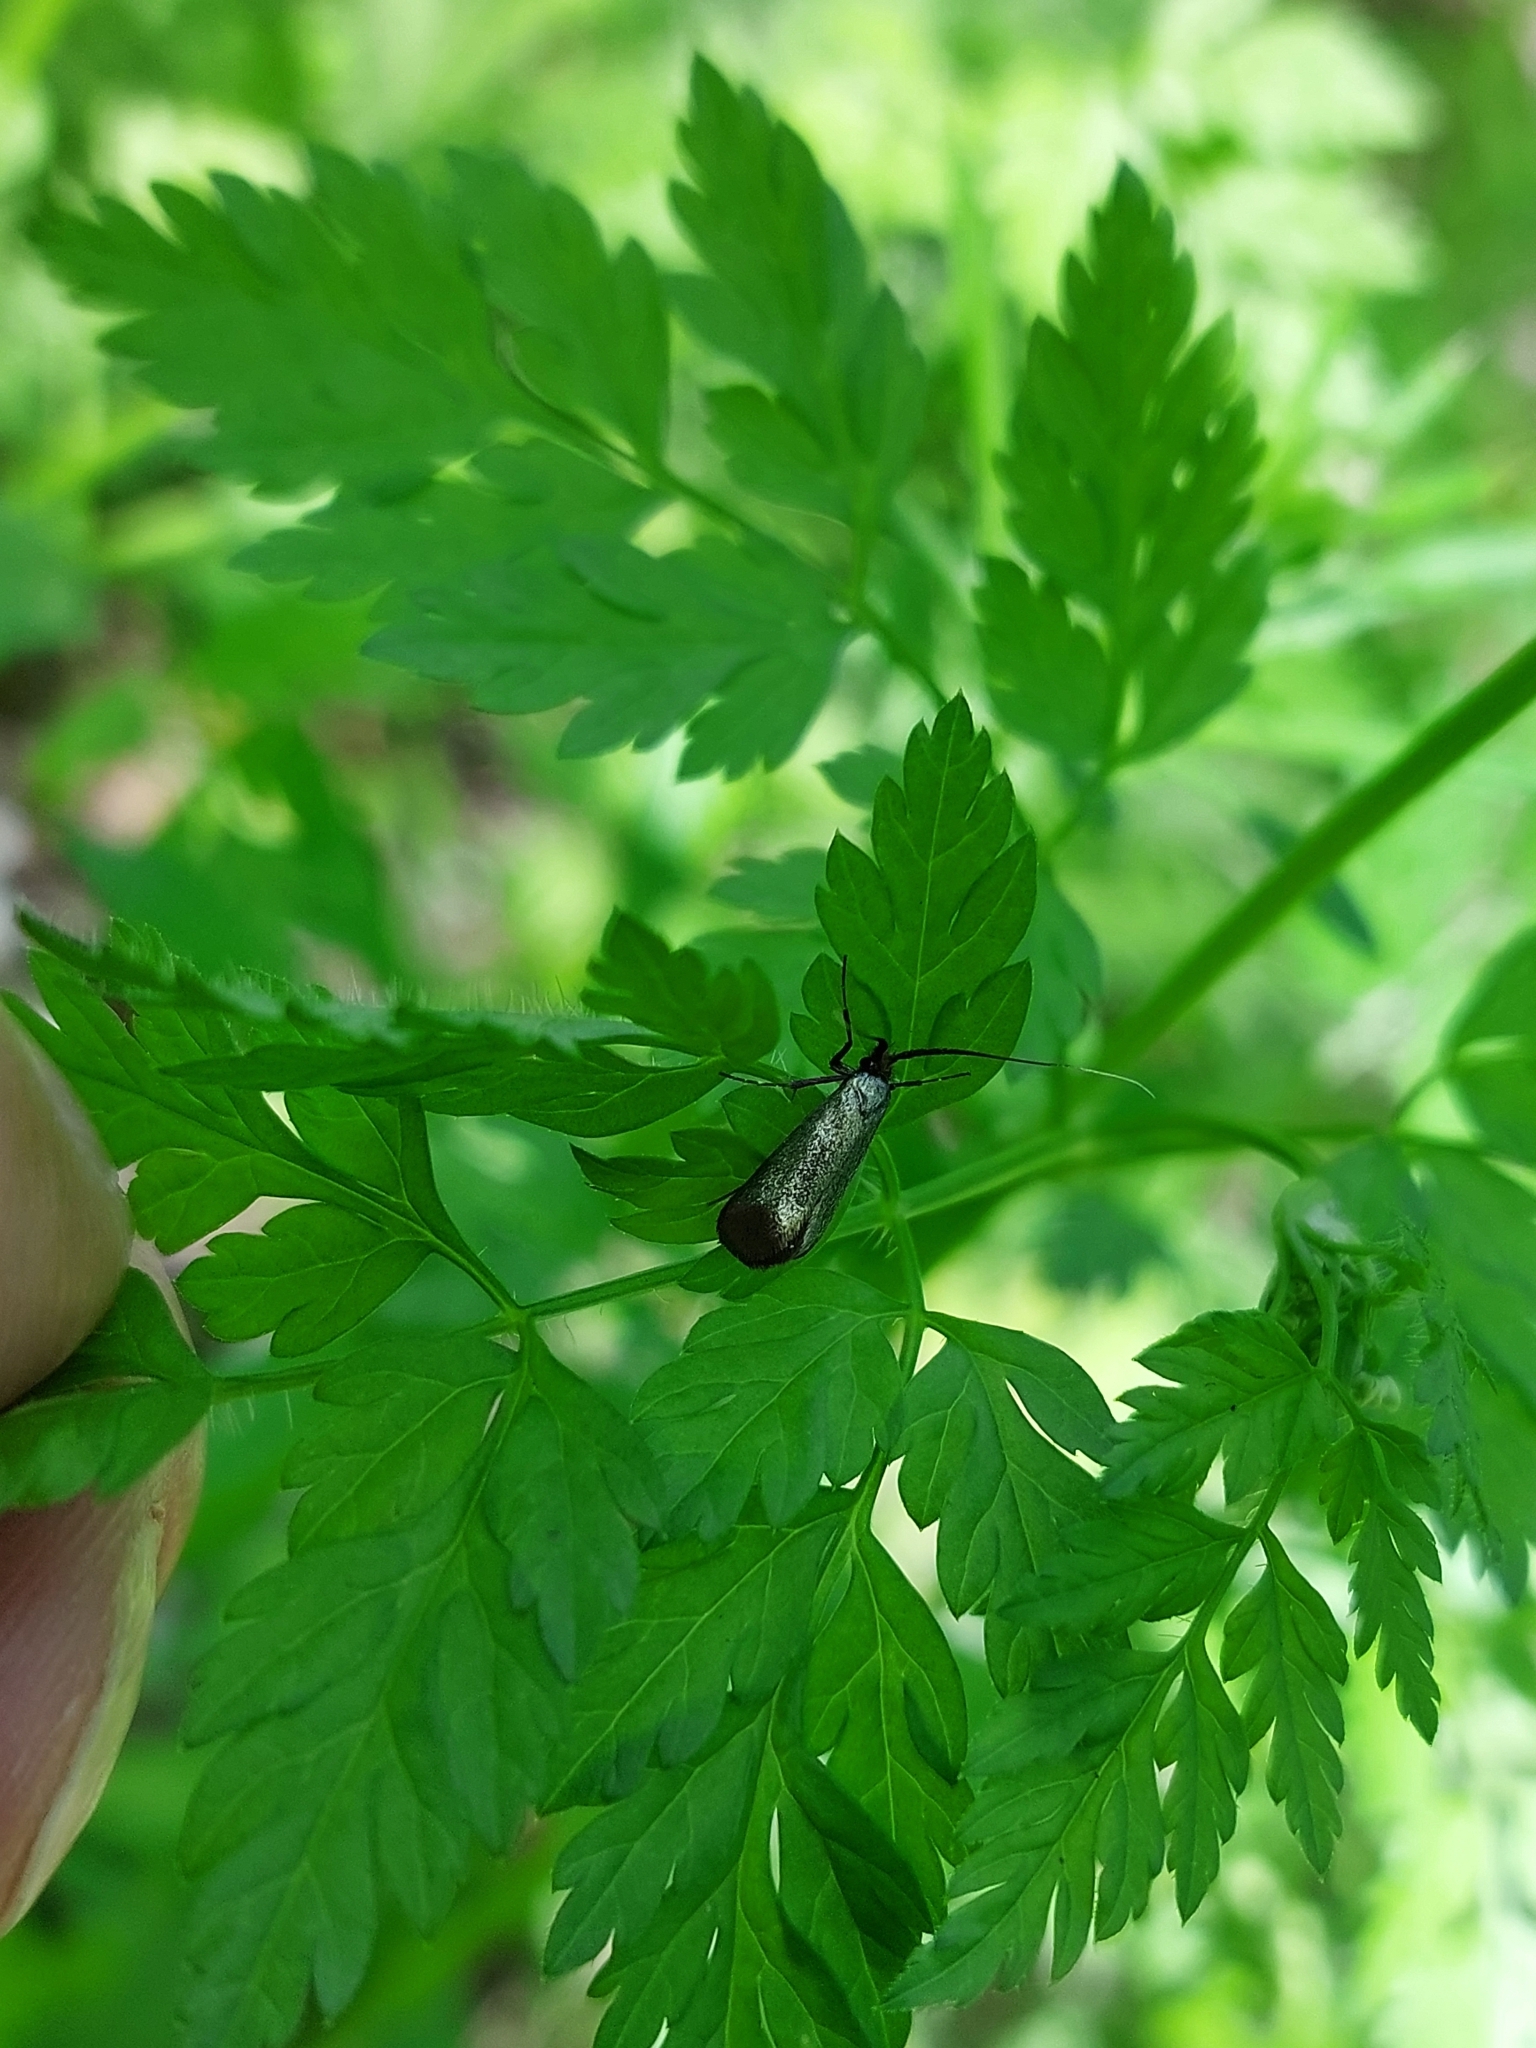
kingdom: Animalia
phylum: Arthropoda
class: Insecta
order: Lepidoptera
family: Adelidae
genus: Adela
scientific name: Adela viridella
